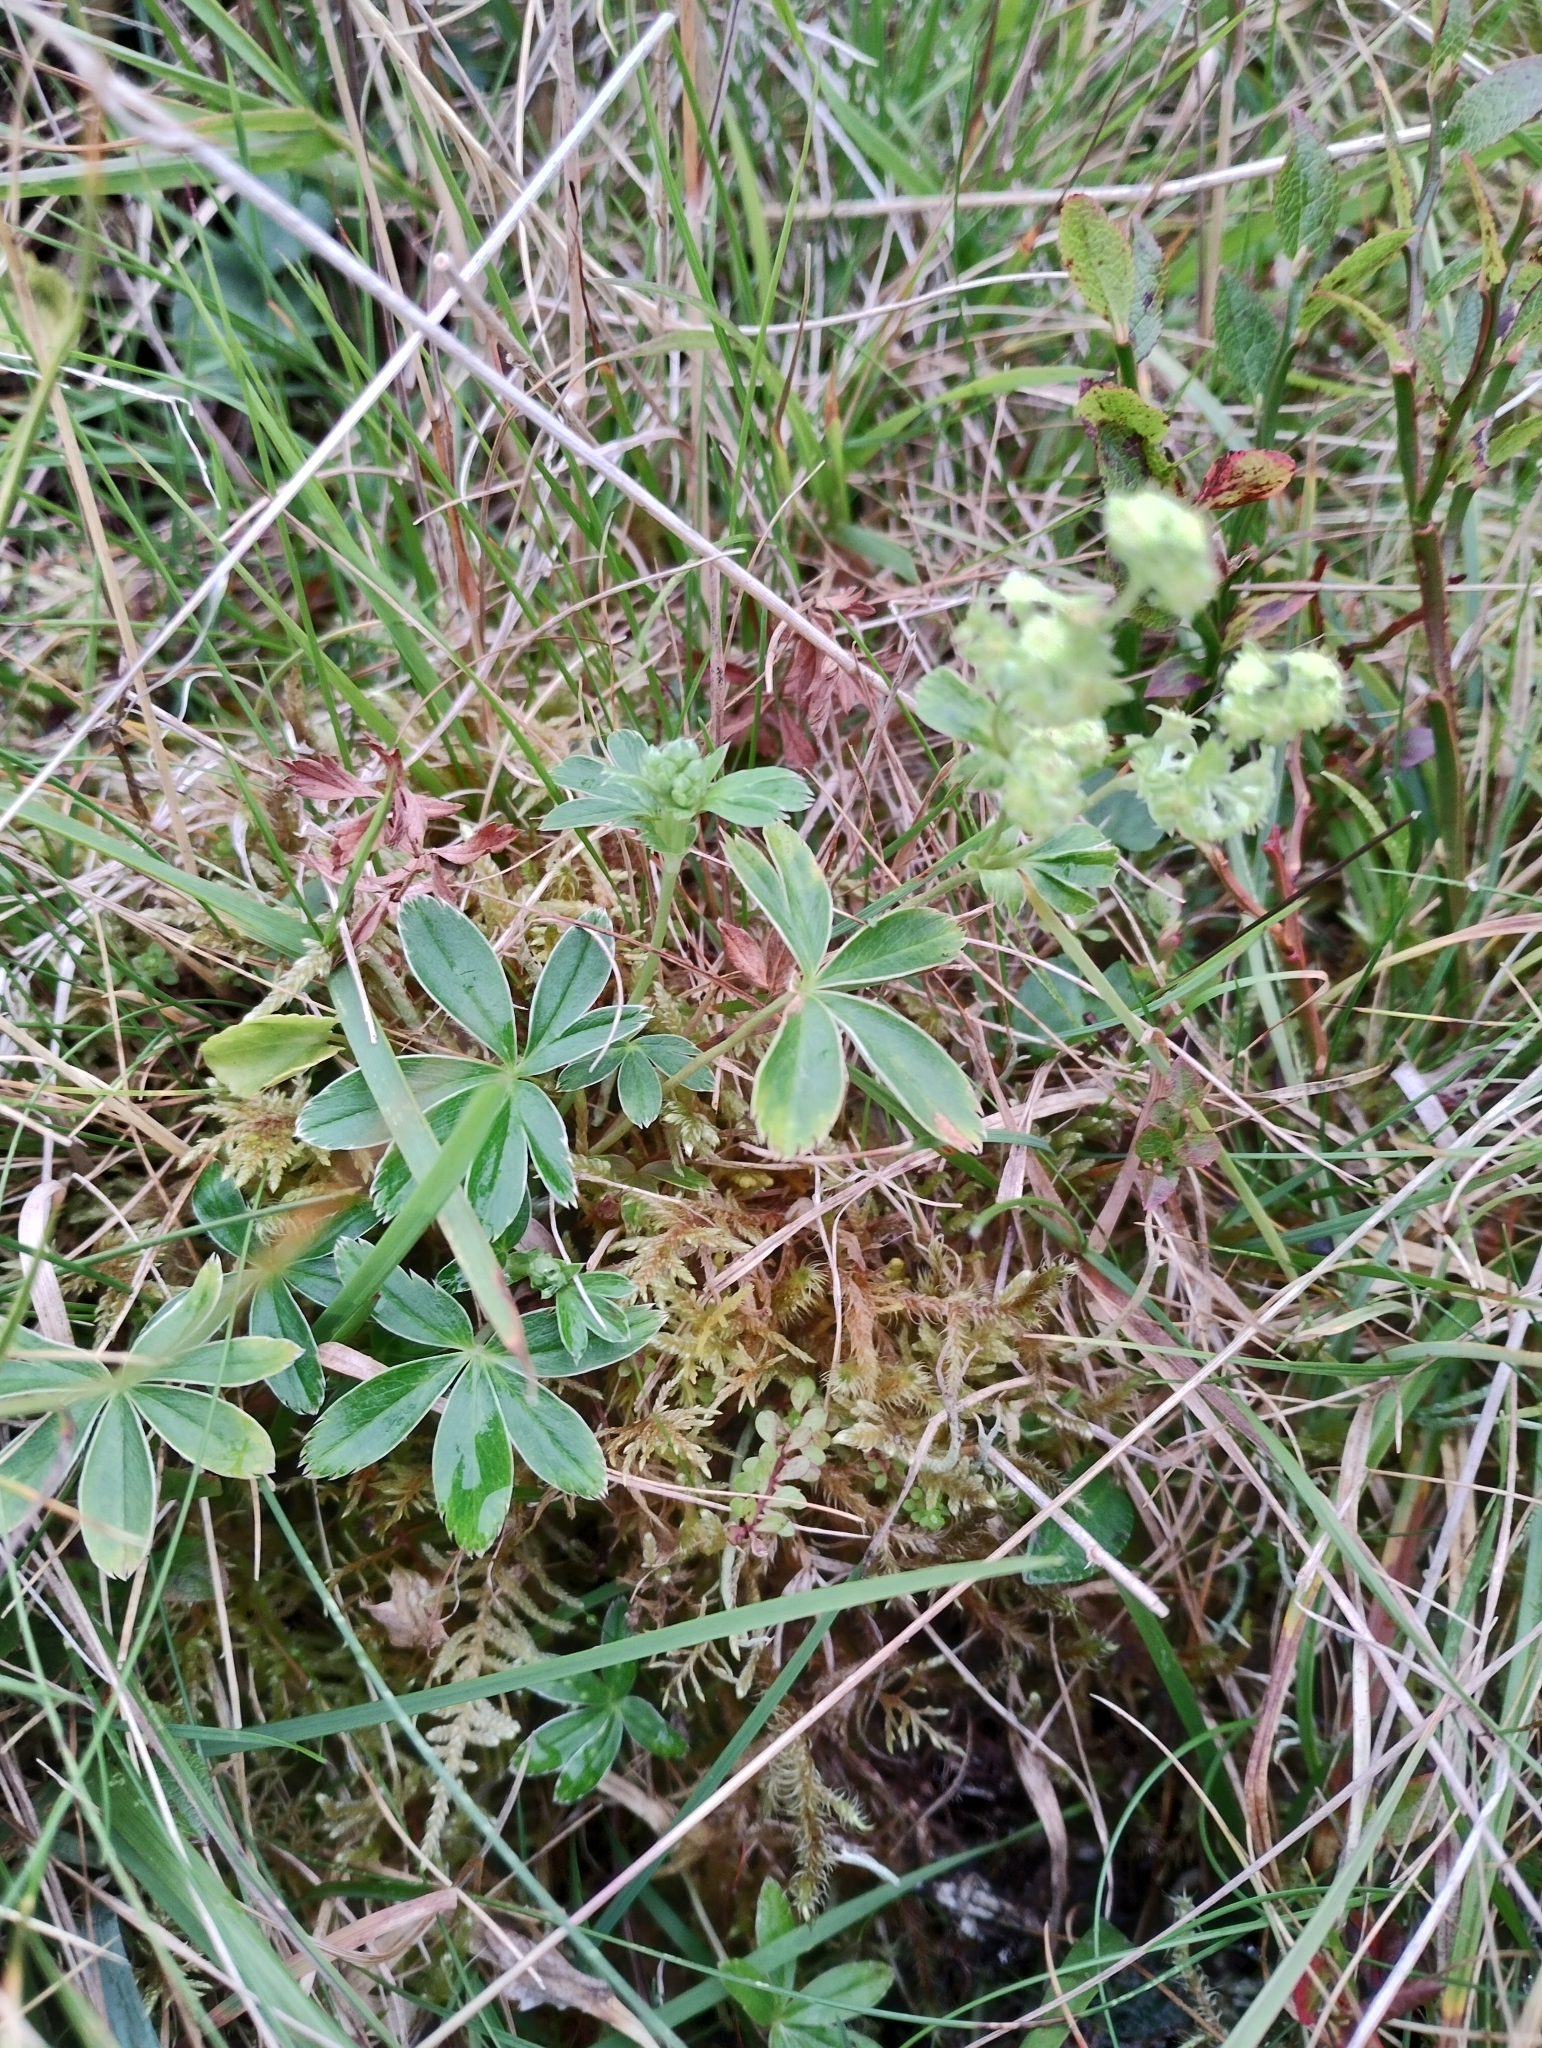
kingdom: Plantae
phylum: Tracheophyta
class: Magnoliopsida
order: Rosales
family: Rosaceae
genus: Alchemilla
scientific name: Alchemilla alpina
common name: Alpine lady's-mantle
